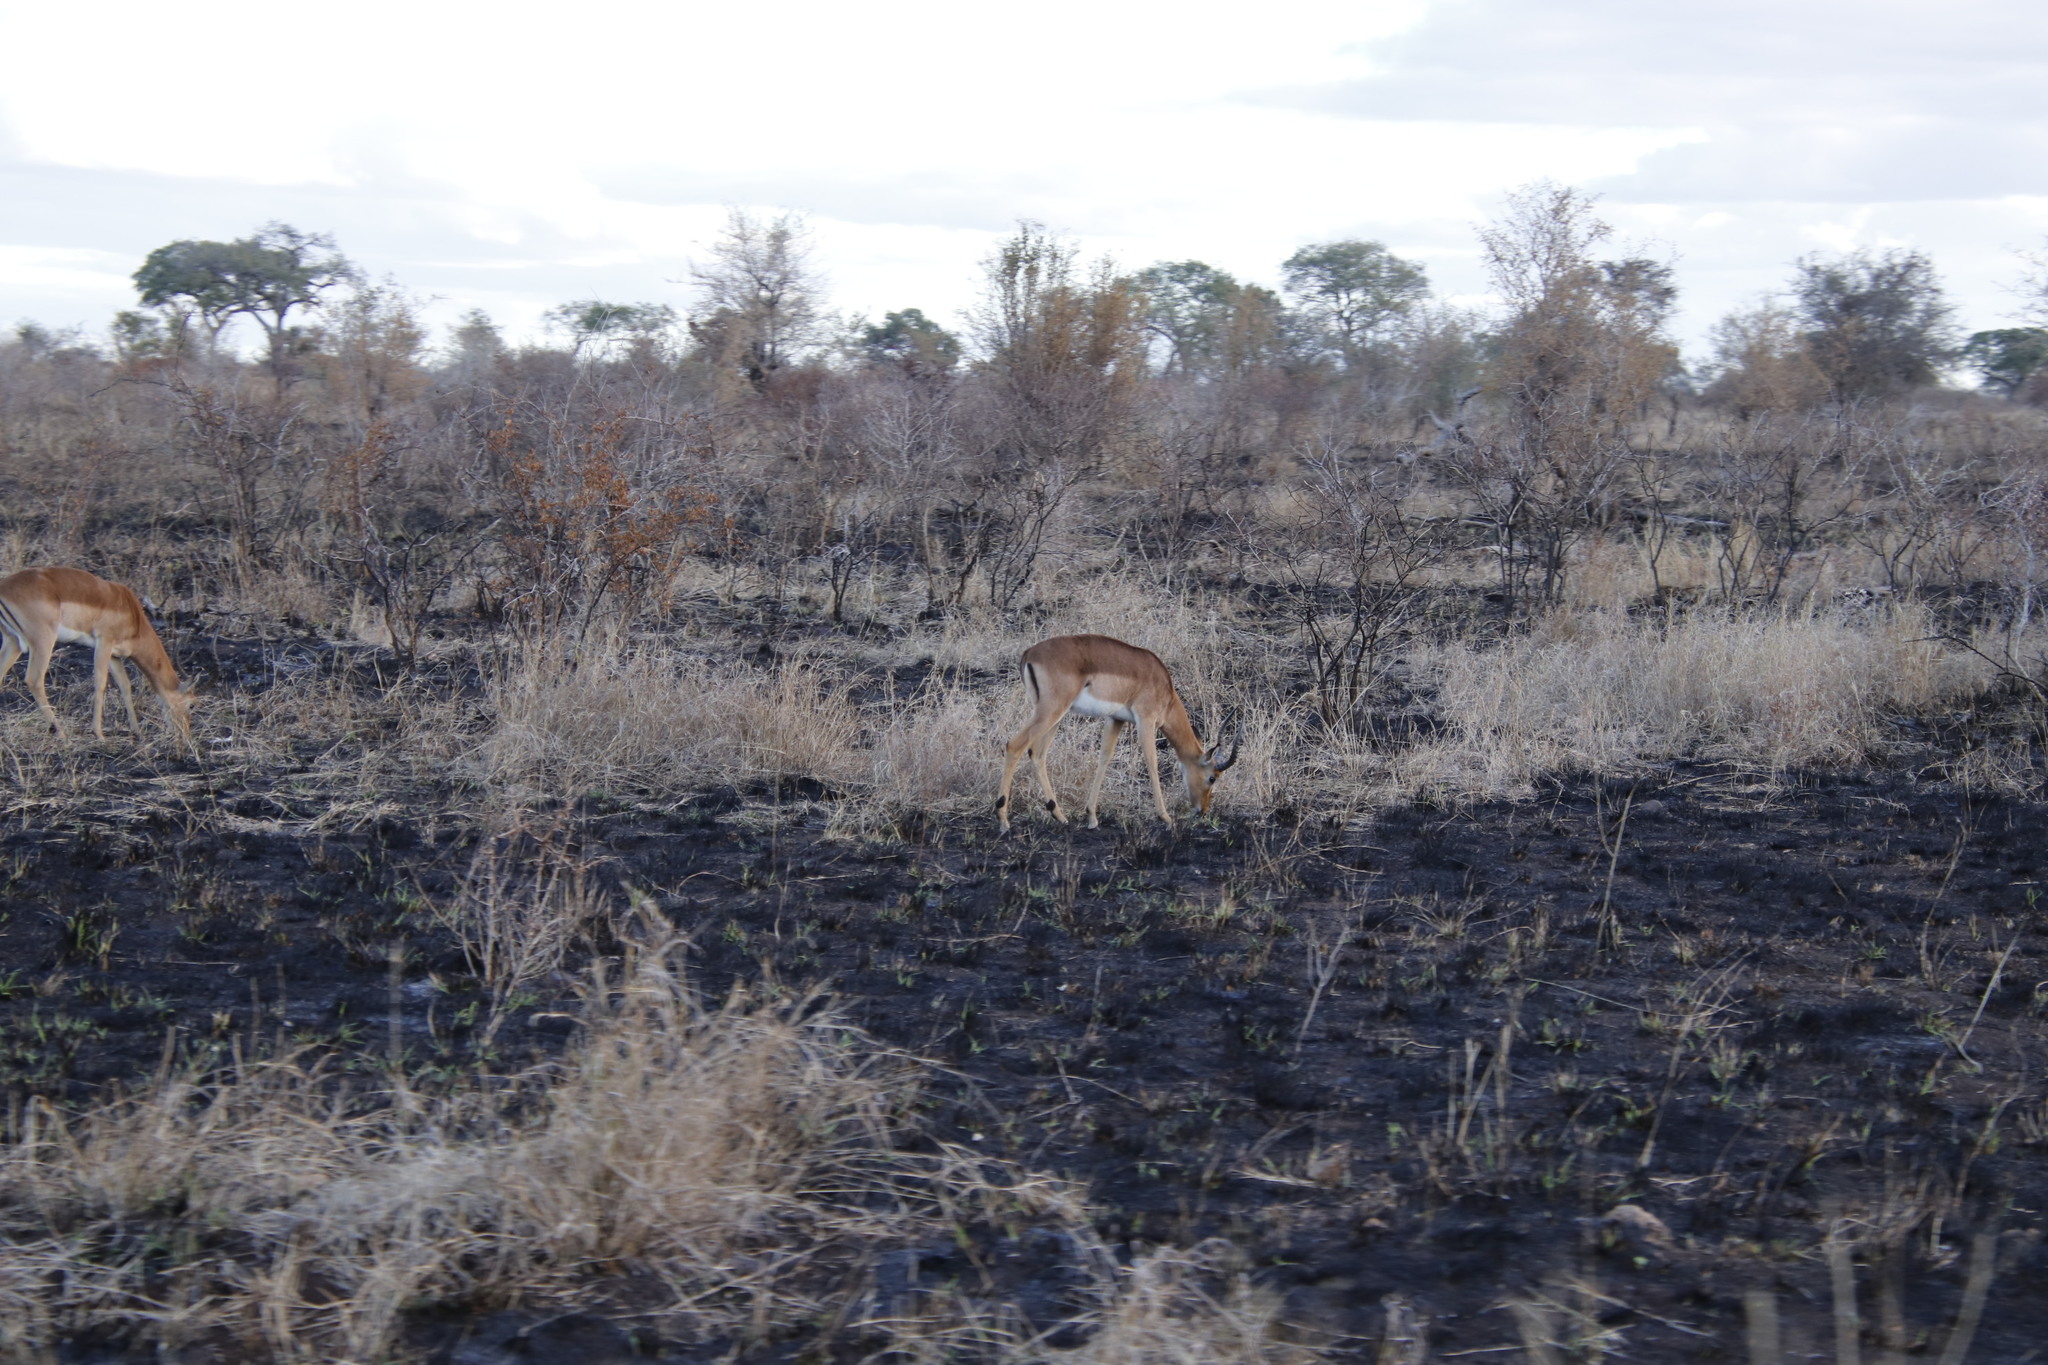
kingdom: Animalia
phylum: Chordata
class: Mammalia
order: Artiodactyla
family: Bovidae
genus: Aepyceros
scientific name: Aepyceros melampus
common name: Impala
